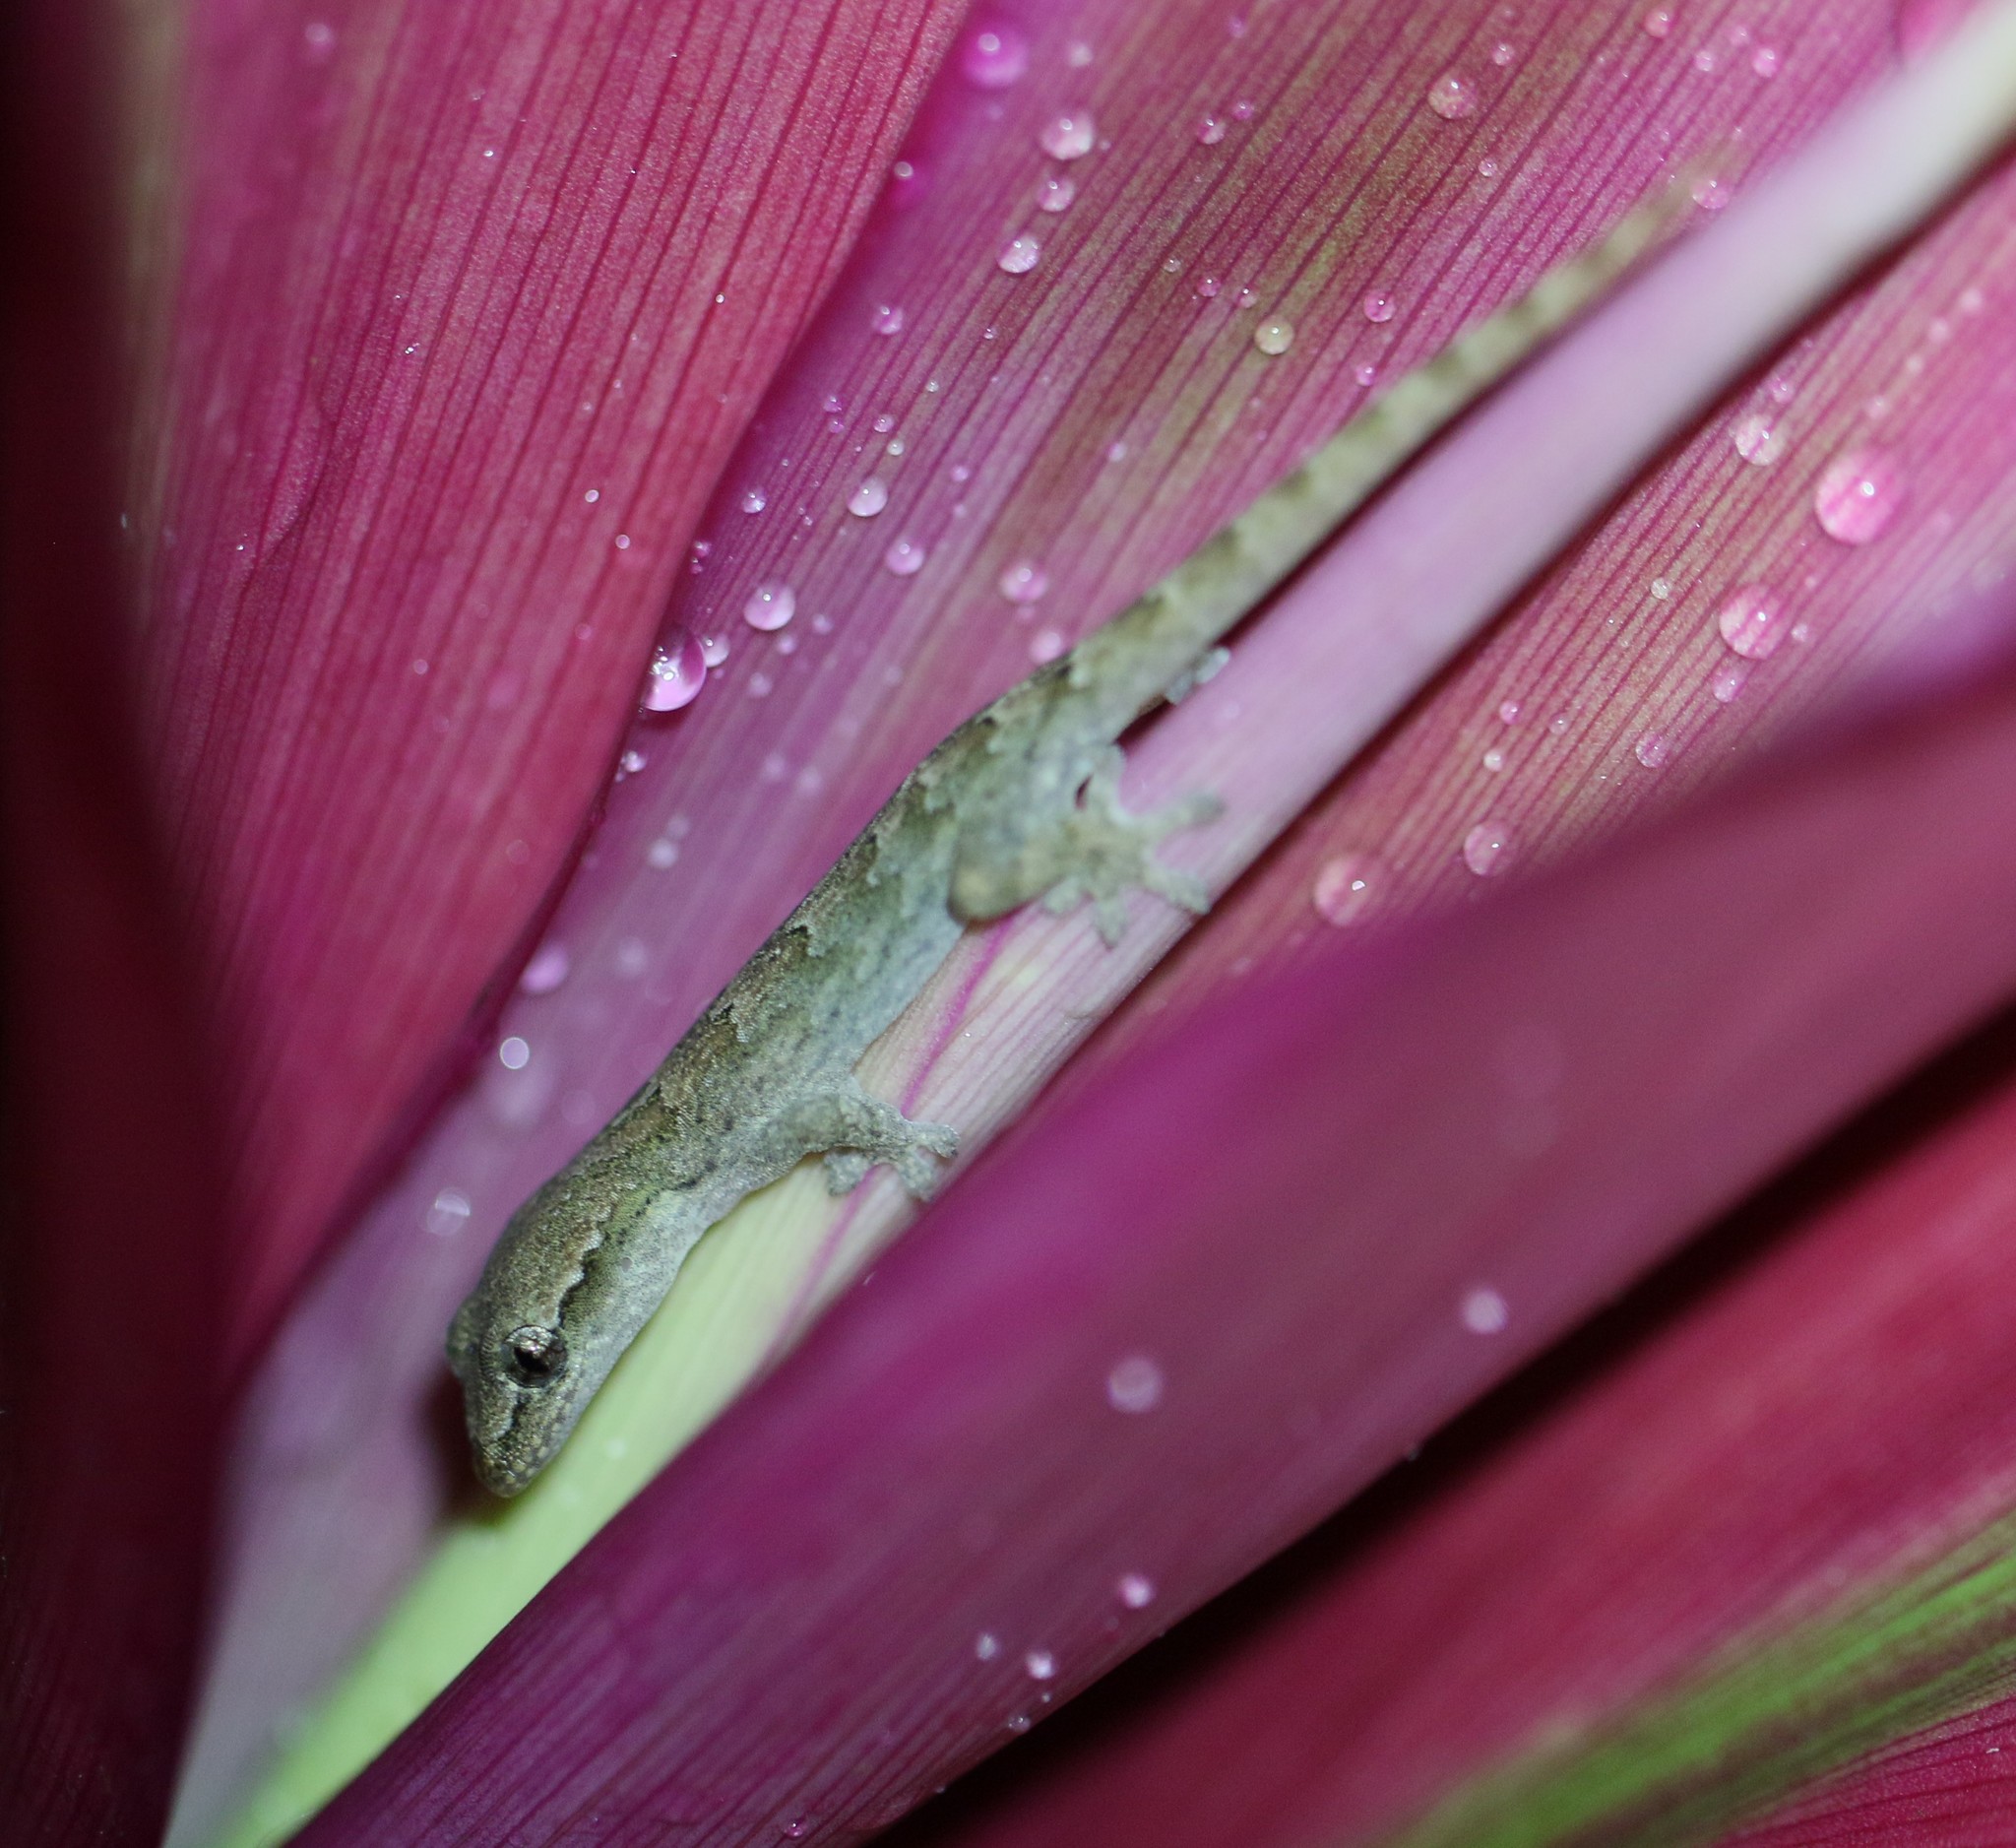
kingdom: Animalia
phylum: Chordata
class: Squamata
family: Gekkonidae
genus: Lepidodactylus
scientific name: Lepidodactylus lugubris
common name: Mourning gecko
